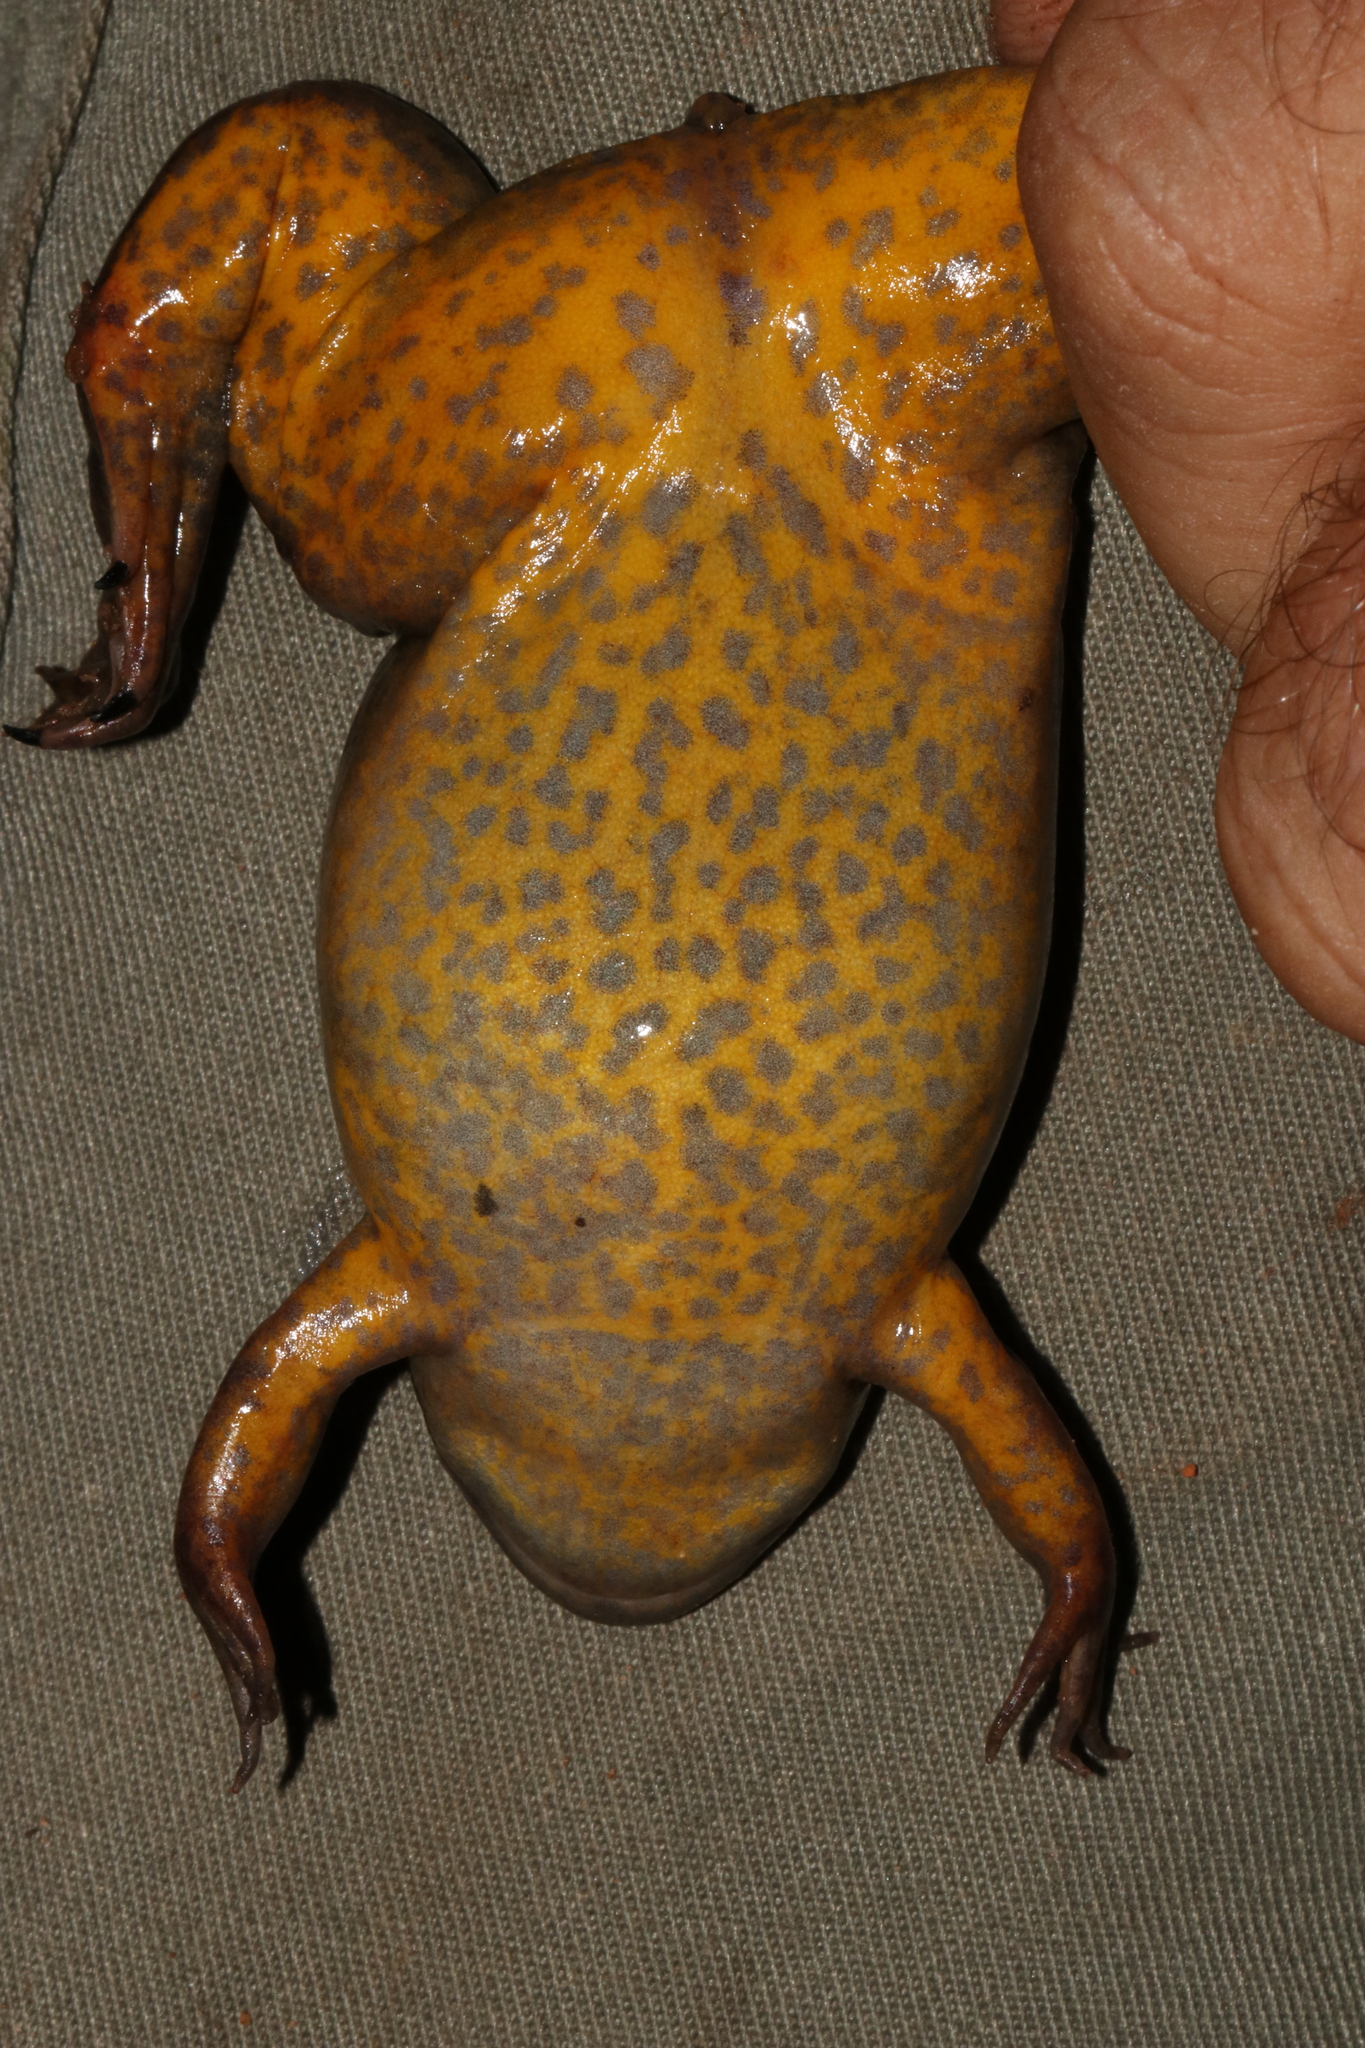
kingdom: Animalia
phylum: Chordata
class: Amphibia
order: Anura
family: Pipidae
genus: Xenopus
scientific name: Xenopus borealis
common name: Marsabit clawed frog
